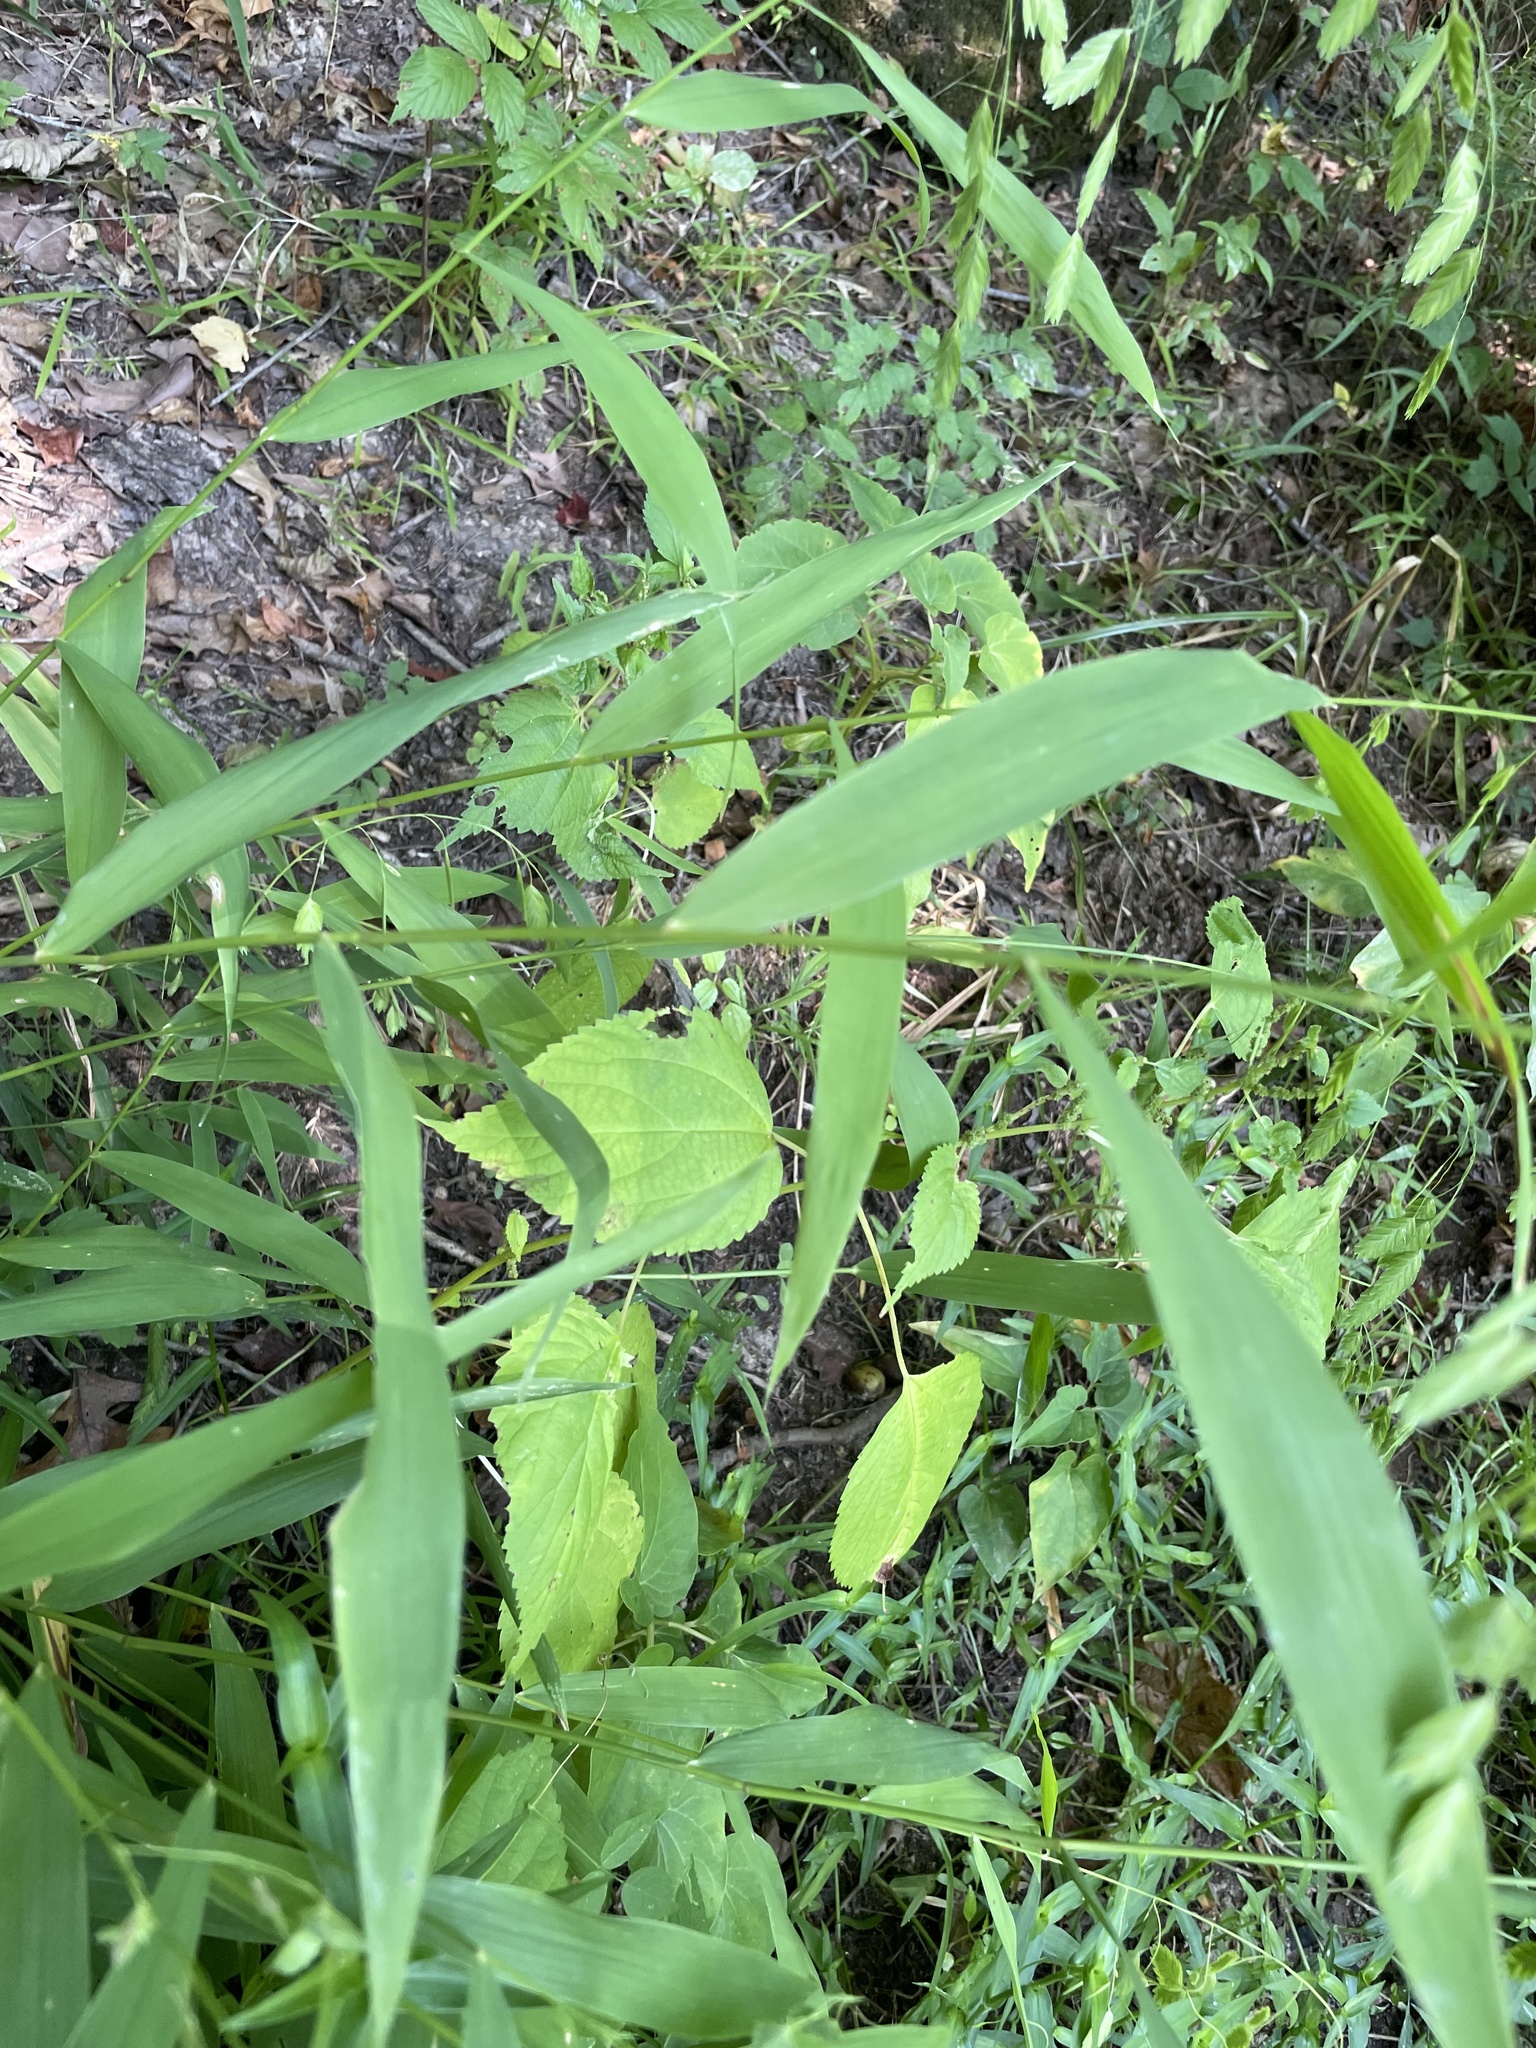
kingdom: Plantae
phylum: Tracheophyta
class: Liliopsida
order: Poales
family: Poaceae
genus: Chasmanthium
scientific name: Chasmanthium latifolium
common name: Broad-leaved chasmanthium
